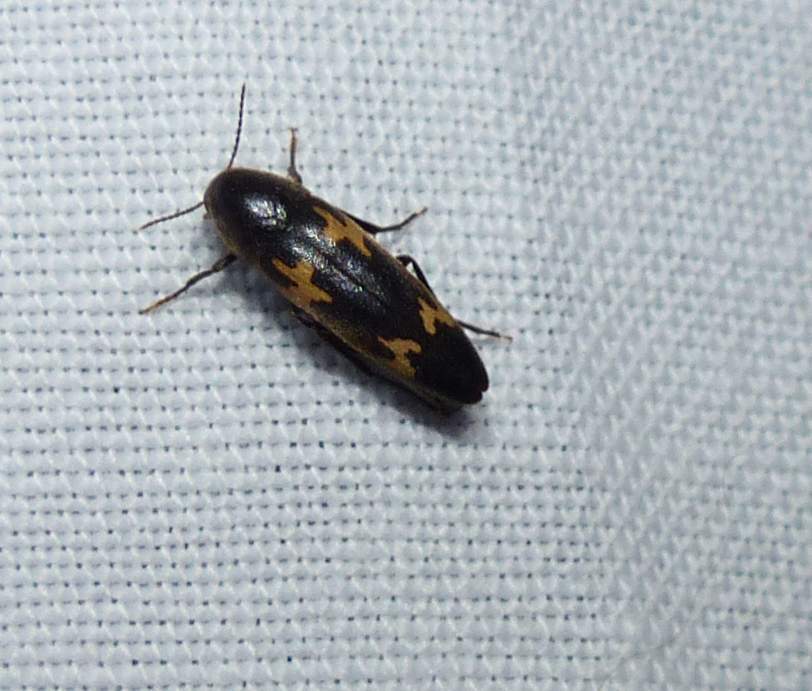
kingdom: Animalia
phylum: Arthropoda
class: Insecta
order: Coleoptera
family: Melandryidae
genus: Dircaea
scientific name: Dircaea liturata
